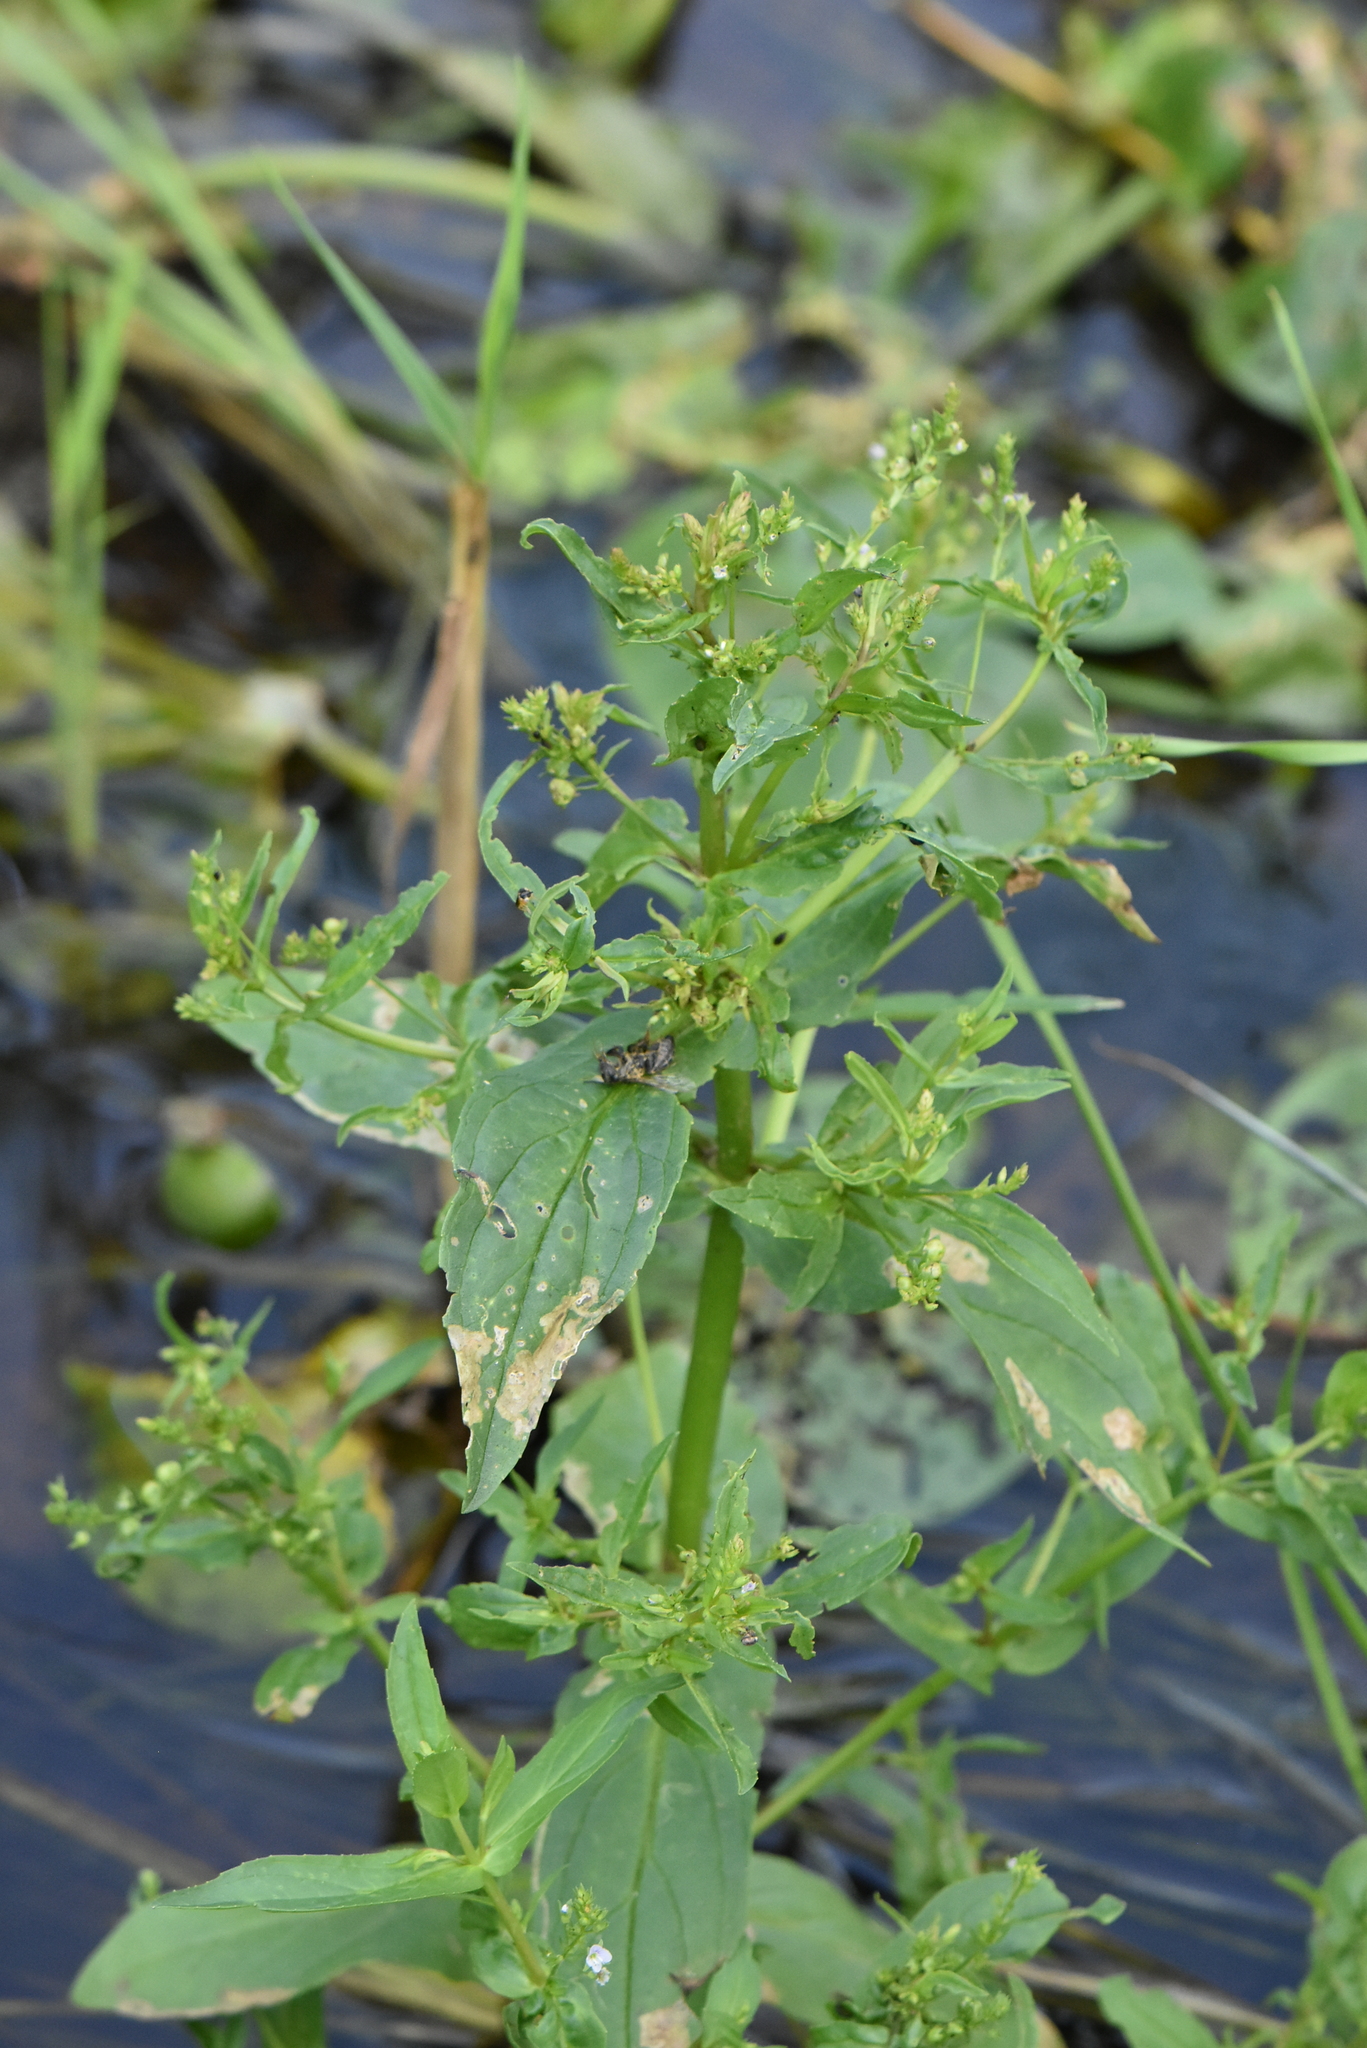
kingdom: Plantae
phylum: Tracheophyta
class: Magnoliopsida
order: Lamiales
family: Plantaginaceae
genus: Veronica
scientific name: Veronica anagallis-aquatica
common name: Water speedwell
